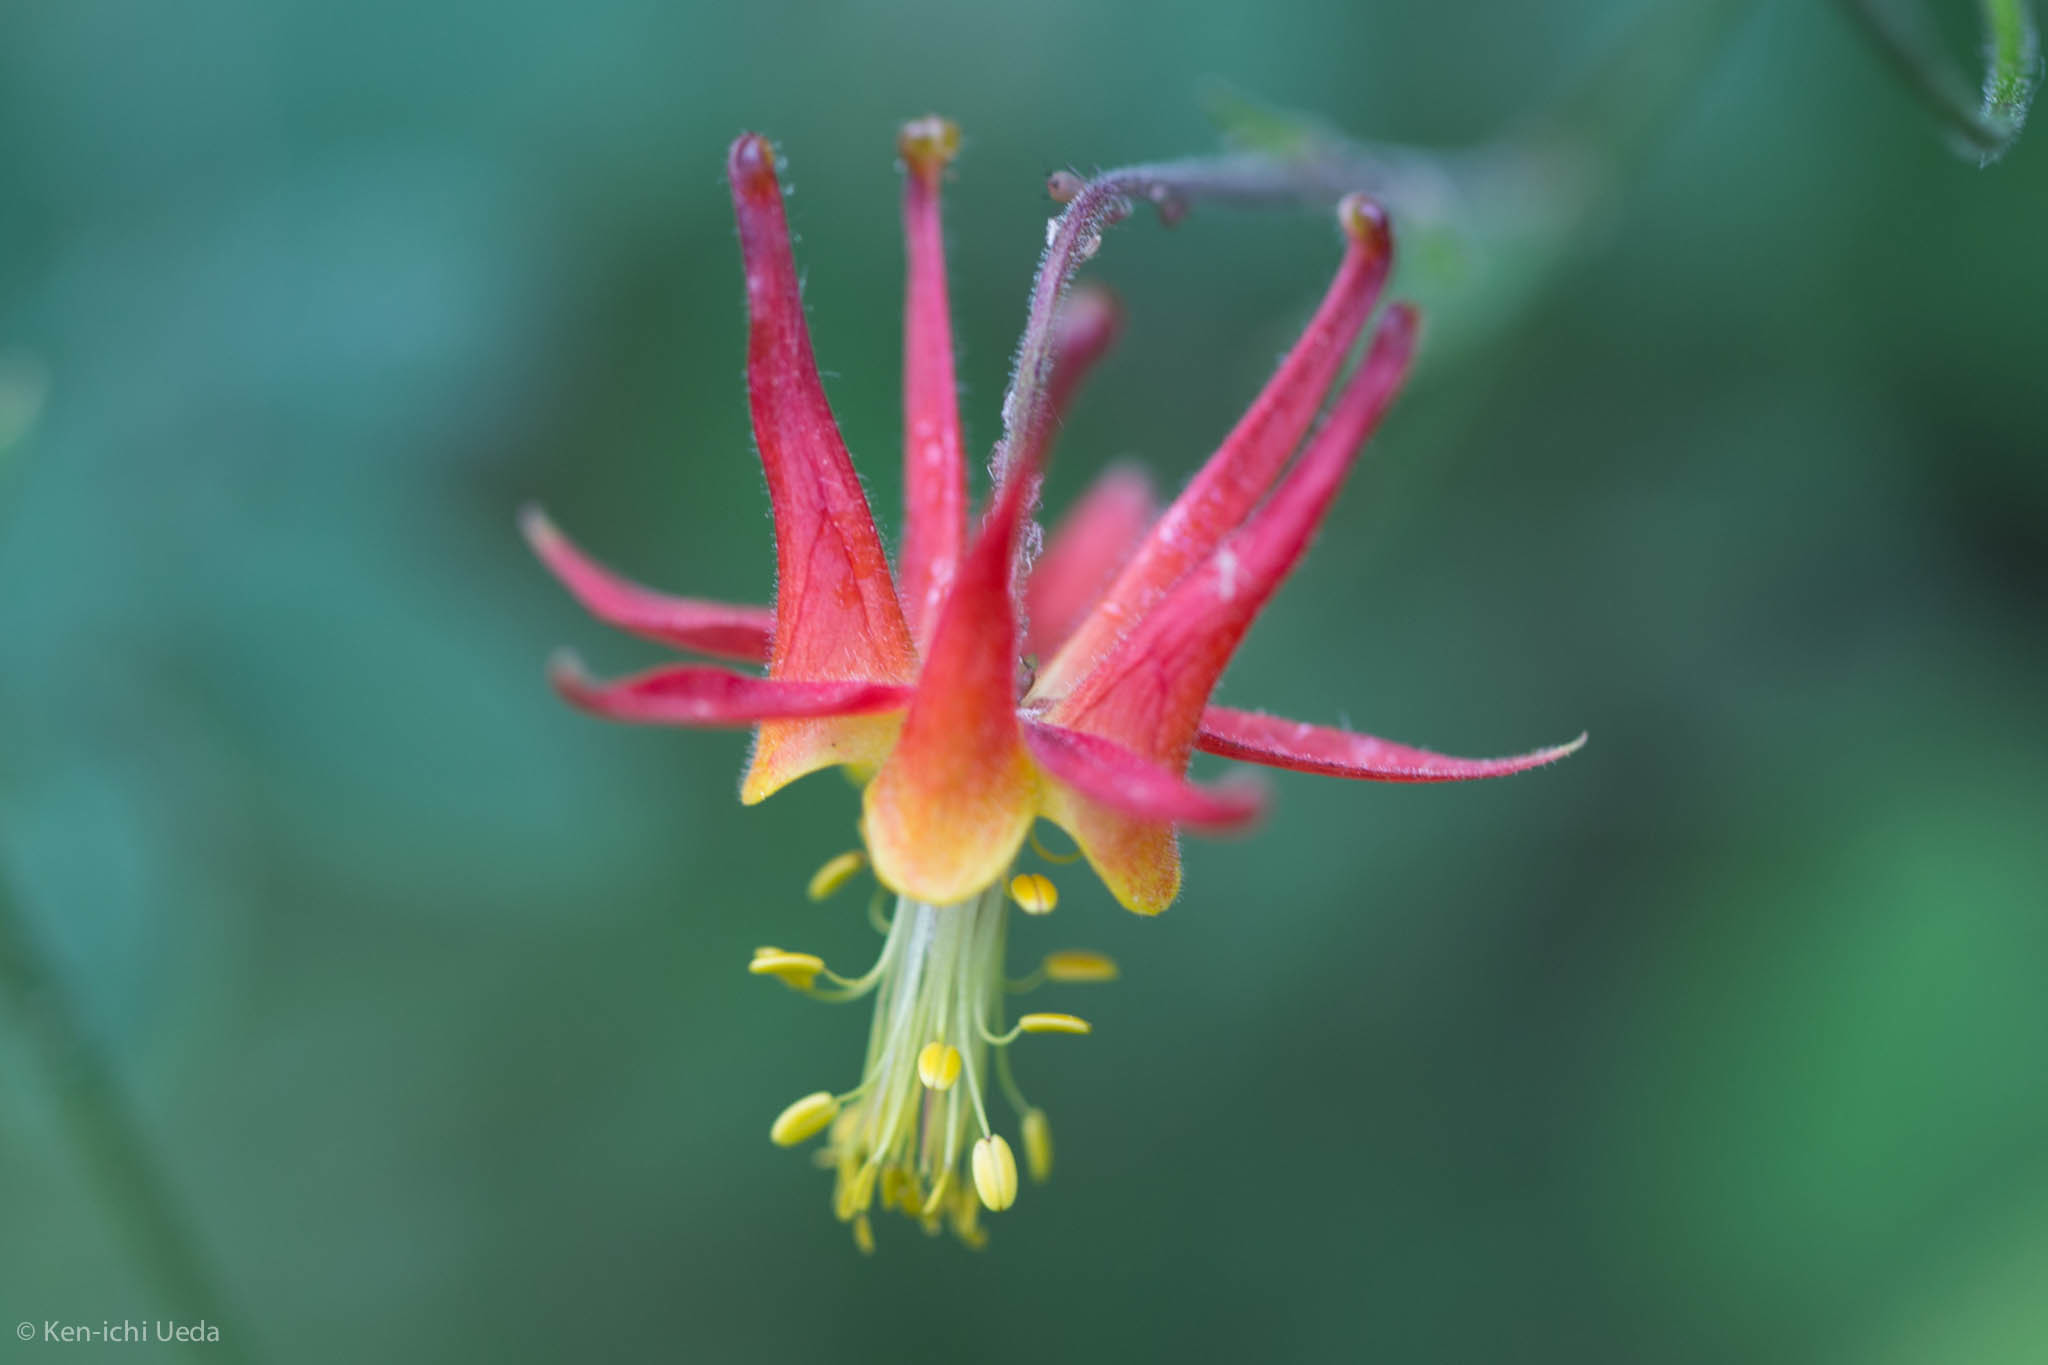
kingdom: Plantae
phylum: Tracheophyta
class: Magnoliopsida
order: Ranunculales
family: Ranunculaceae
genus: Aquilegia
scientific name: Aquilegia formosa
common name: Sitka columbine
